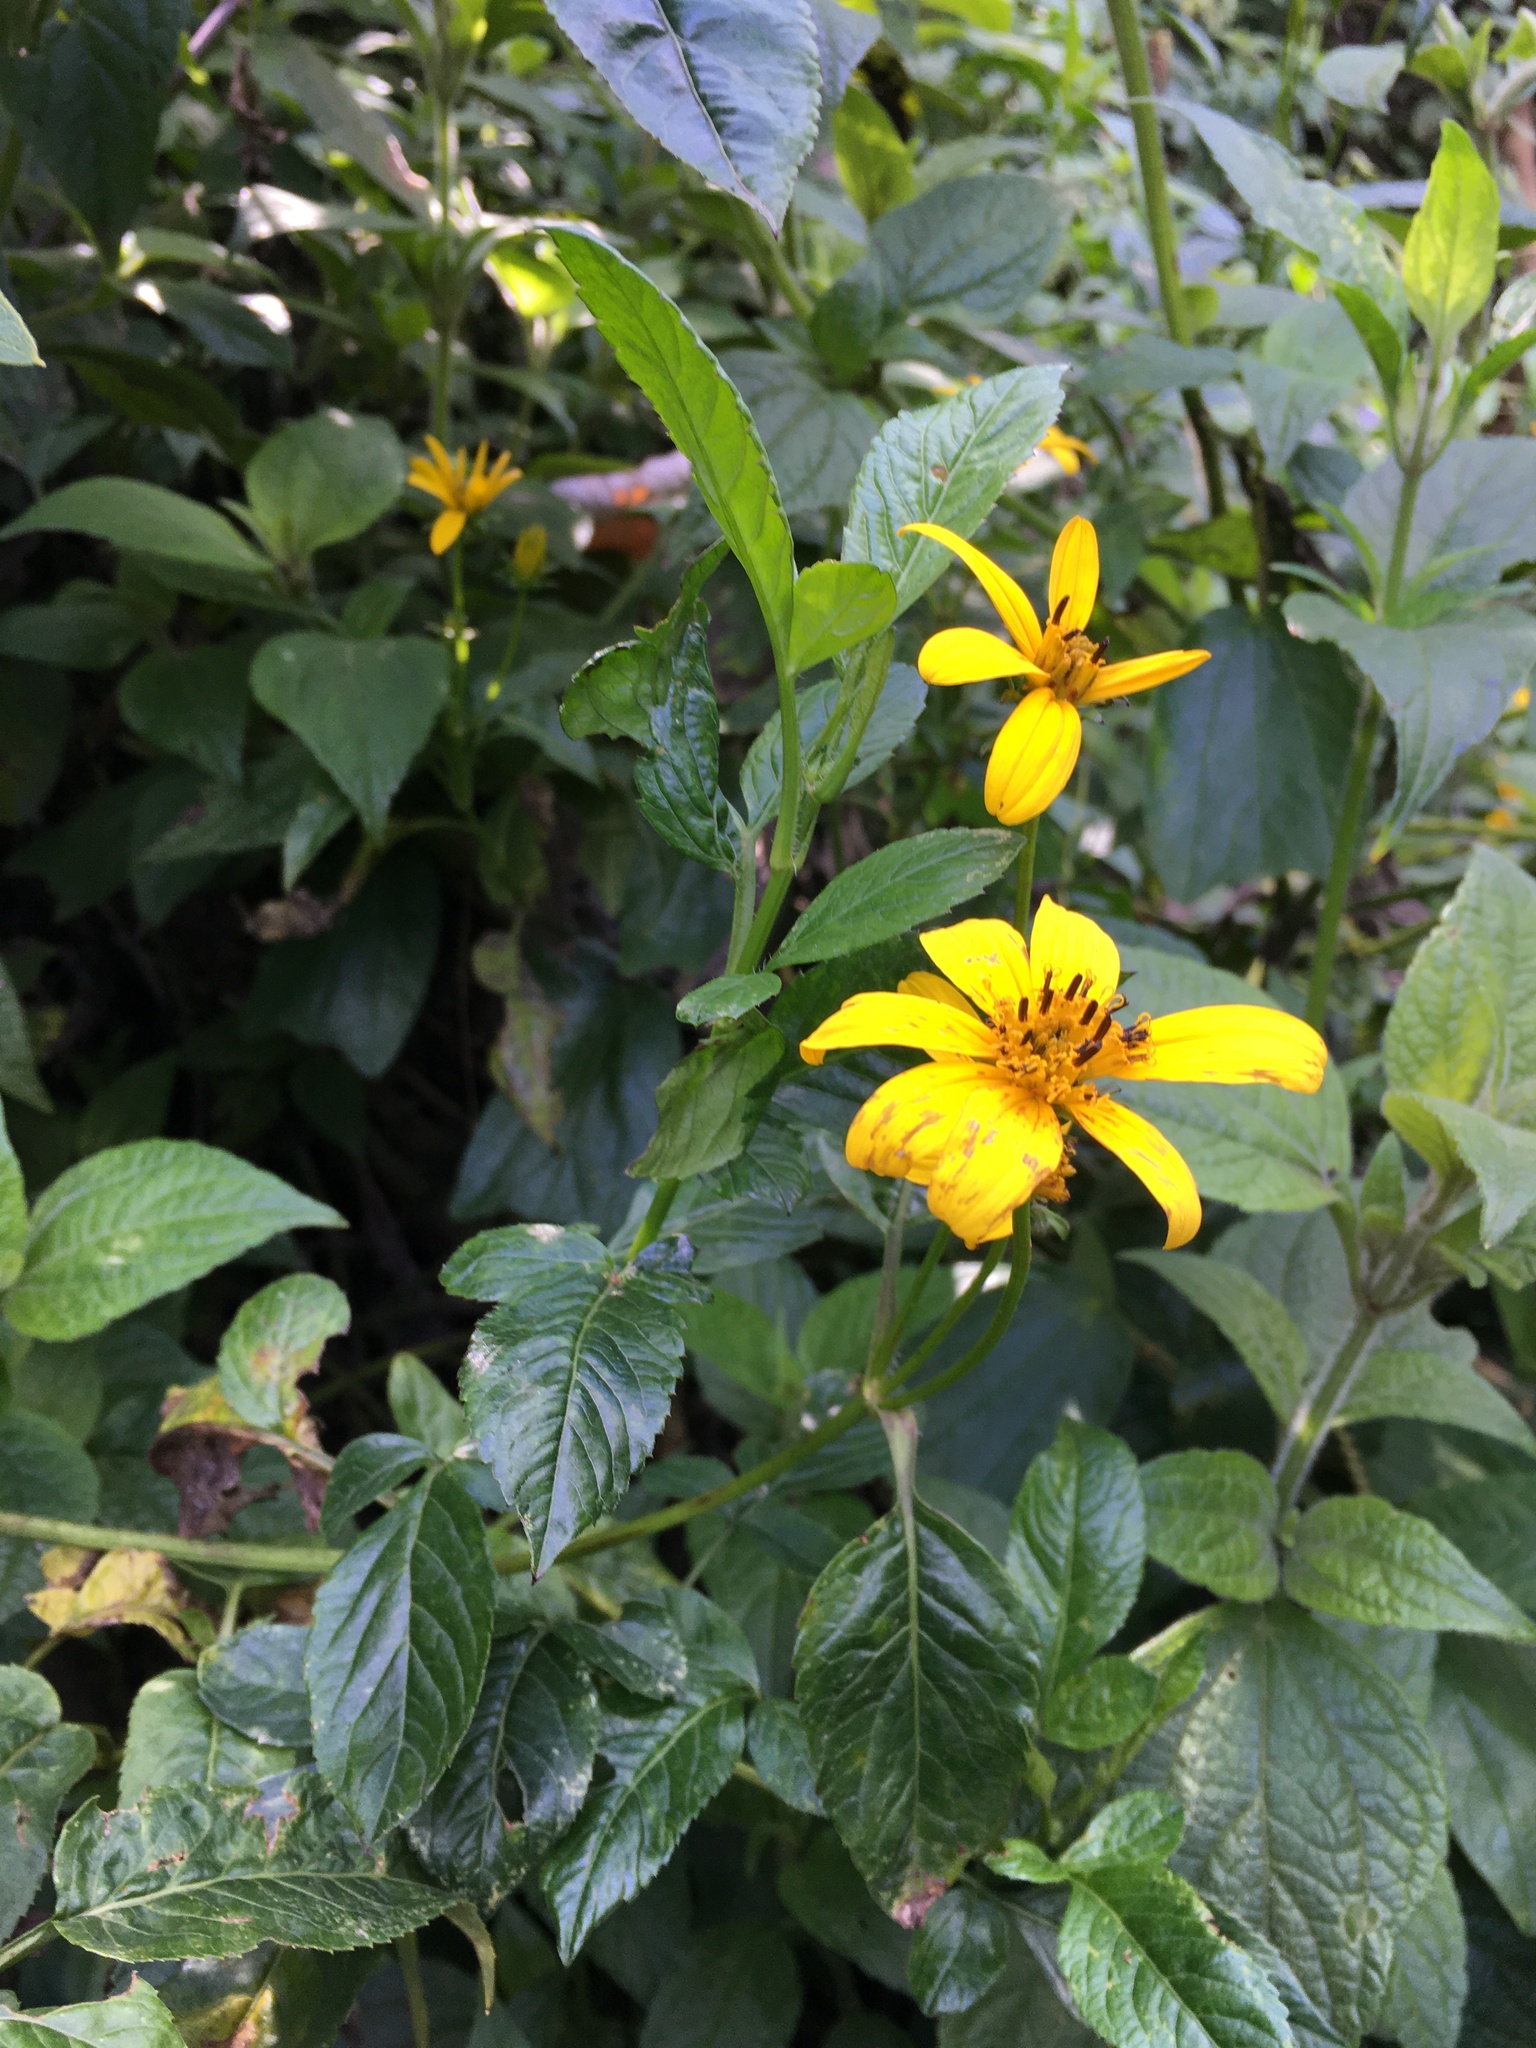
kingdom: Plantae
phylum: Tracheophyta
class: Magnoliopsida
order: Asterales
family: Asteraceae
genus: Bidens
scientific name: Bidens rubifolia
